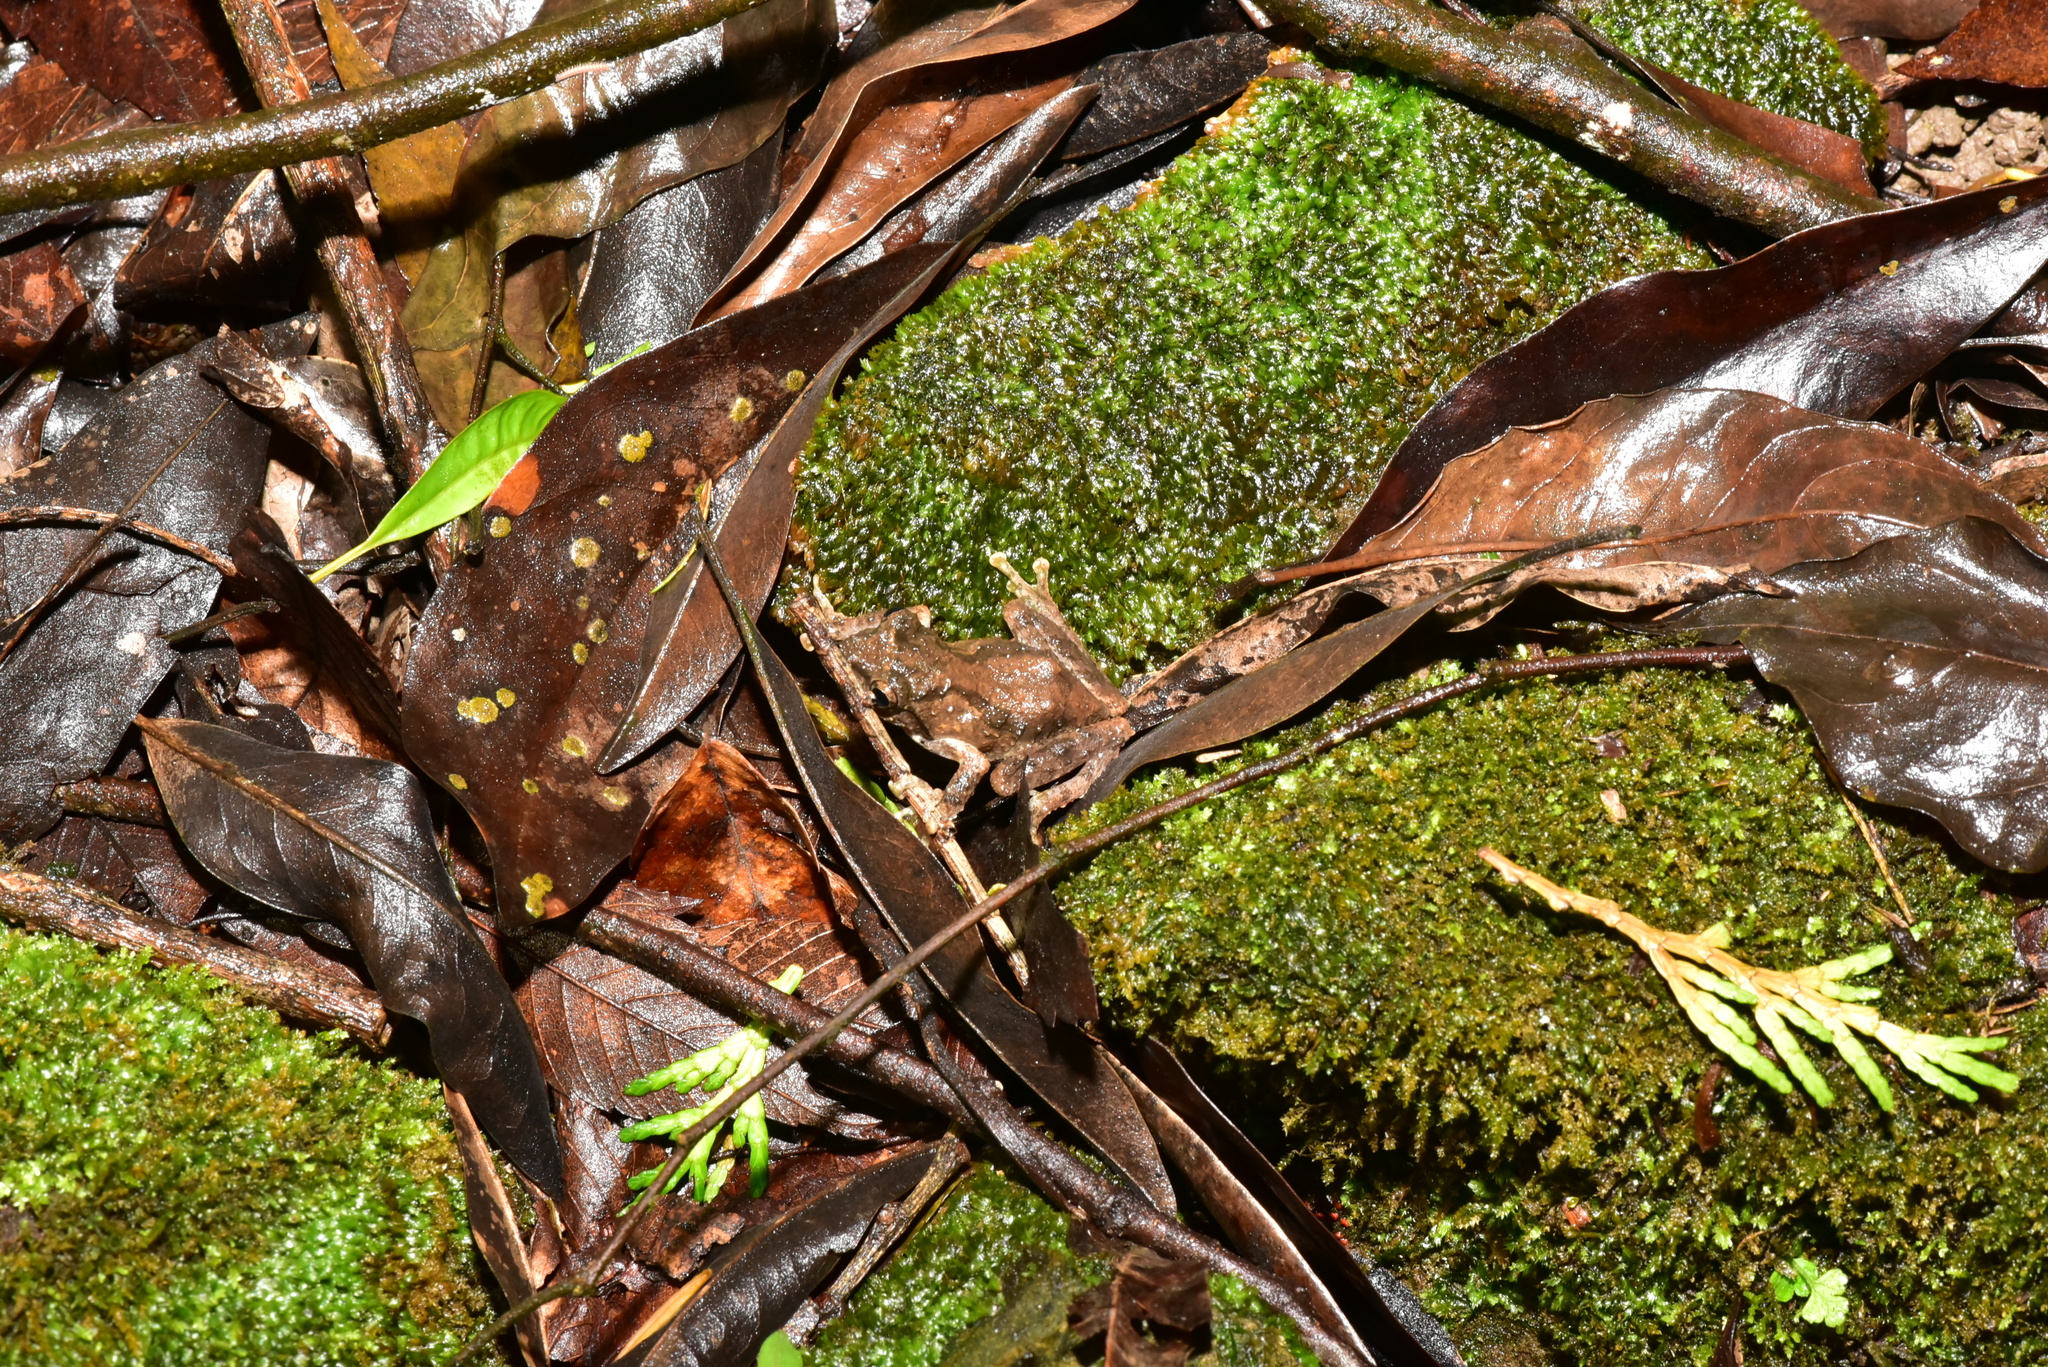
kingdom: Animalia
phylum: Chordata
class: Amphibia
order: Anura
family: Rhacophoridae
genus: Kurixalus
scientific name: Kurixalus idiootocus
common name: Temple treefrog
